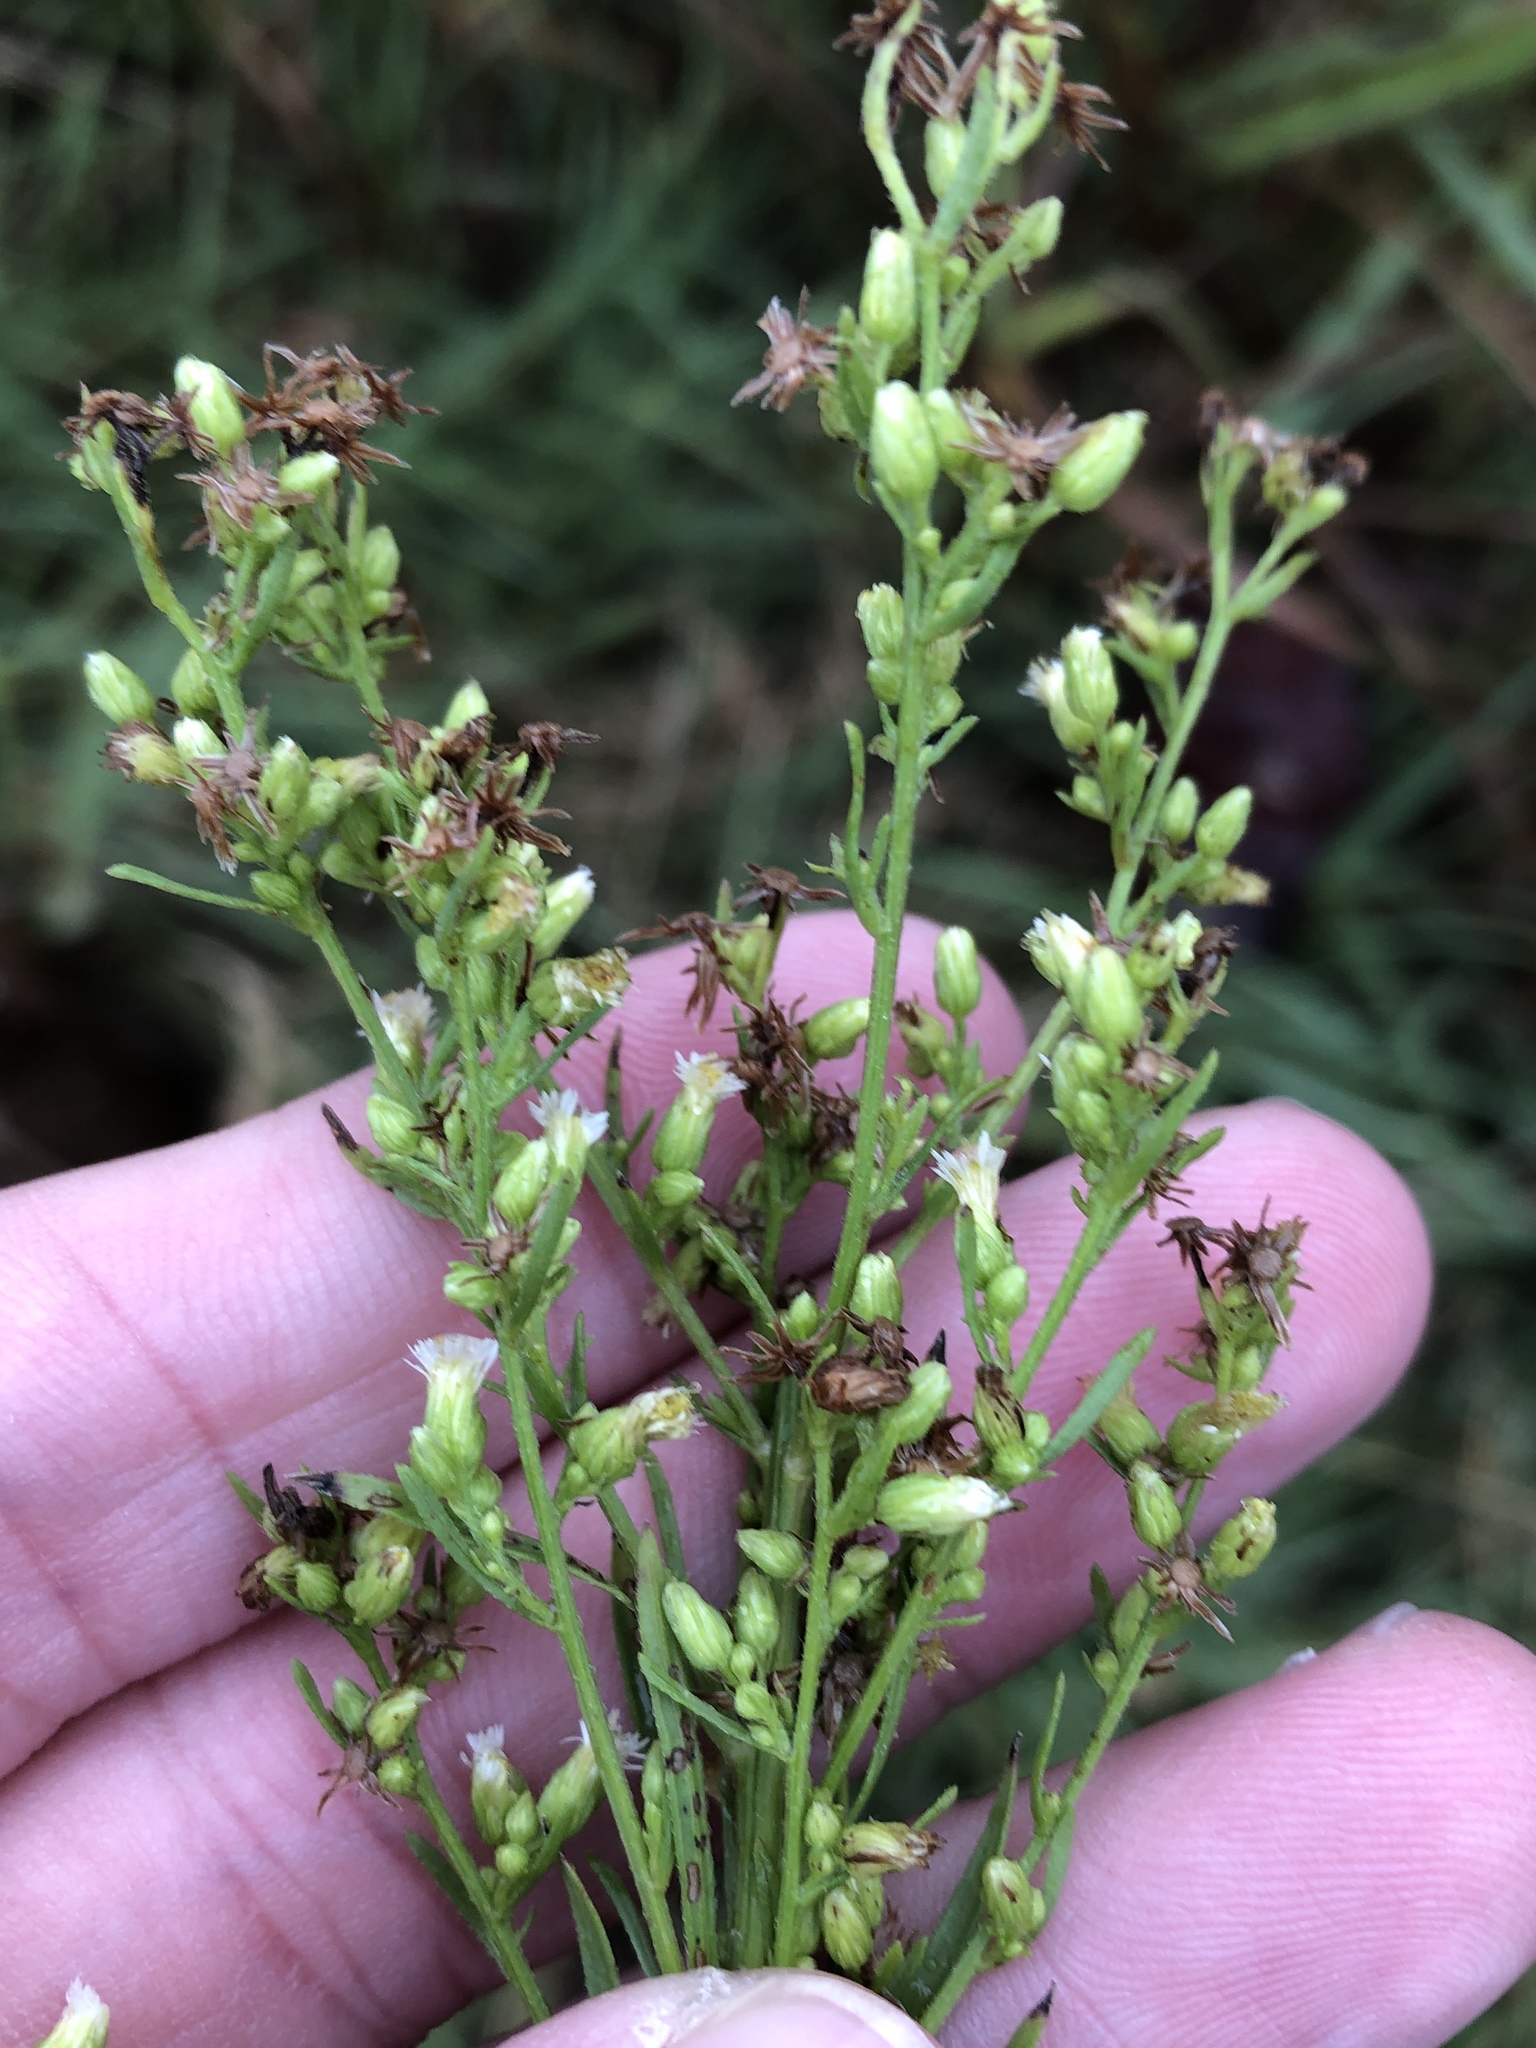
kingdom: Plantae
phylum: Tracheophyta
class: Magnoliopsida
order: Asterales
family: Asteraceae
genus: Erigeron
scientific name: Erigeron canadensis
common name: Canadian fleabane
